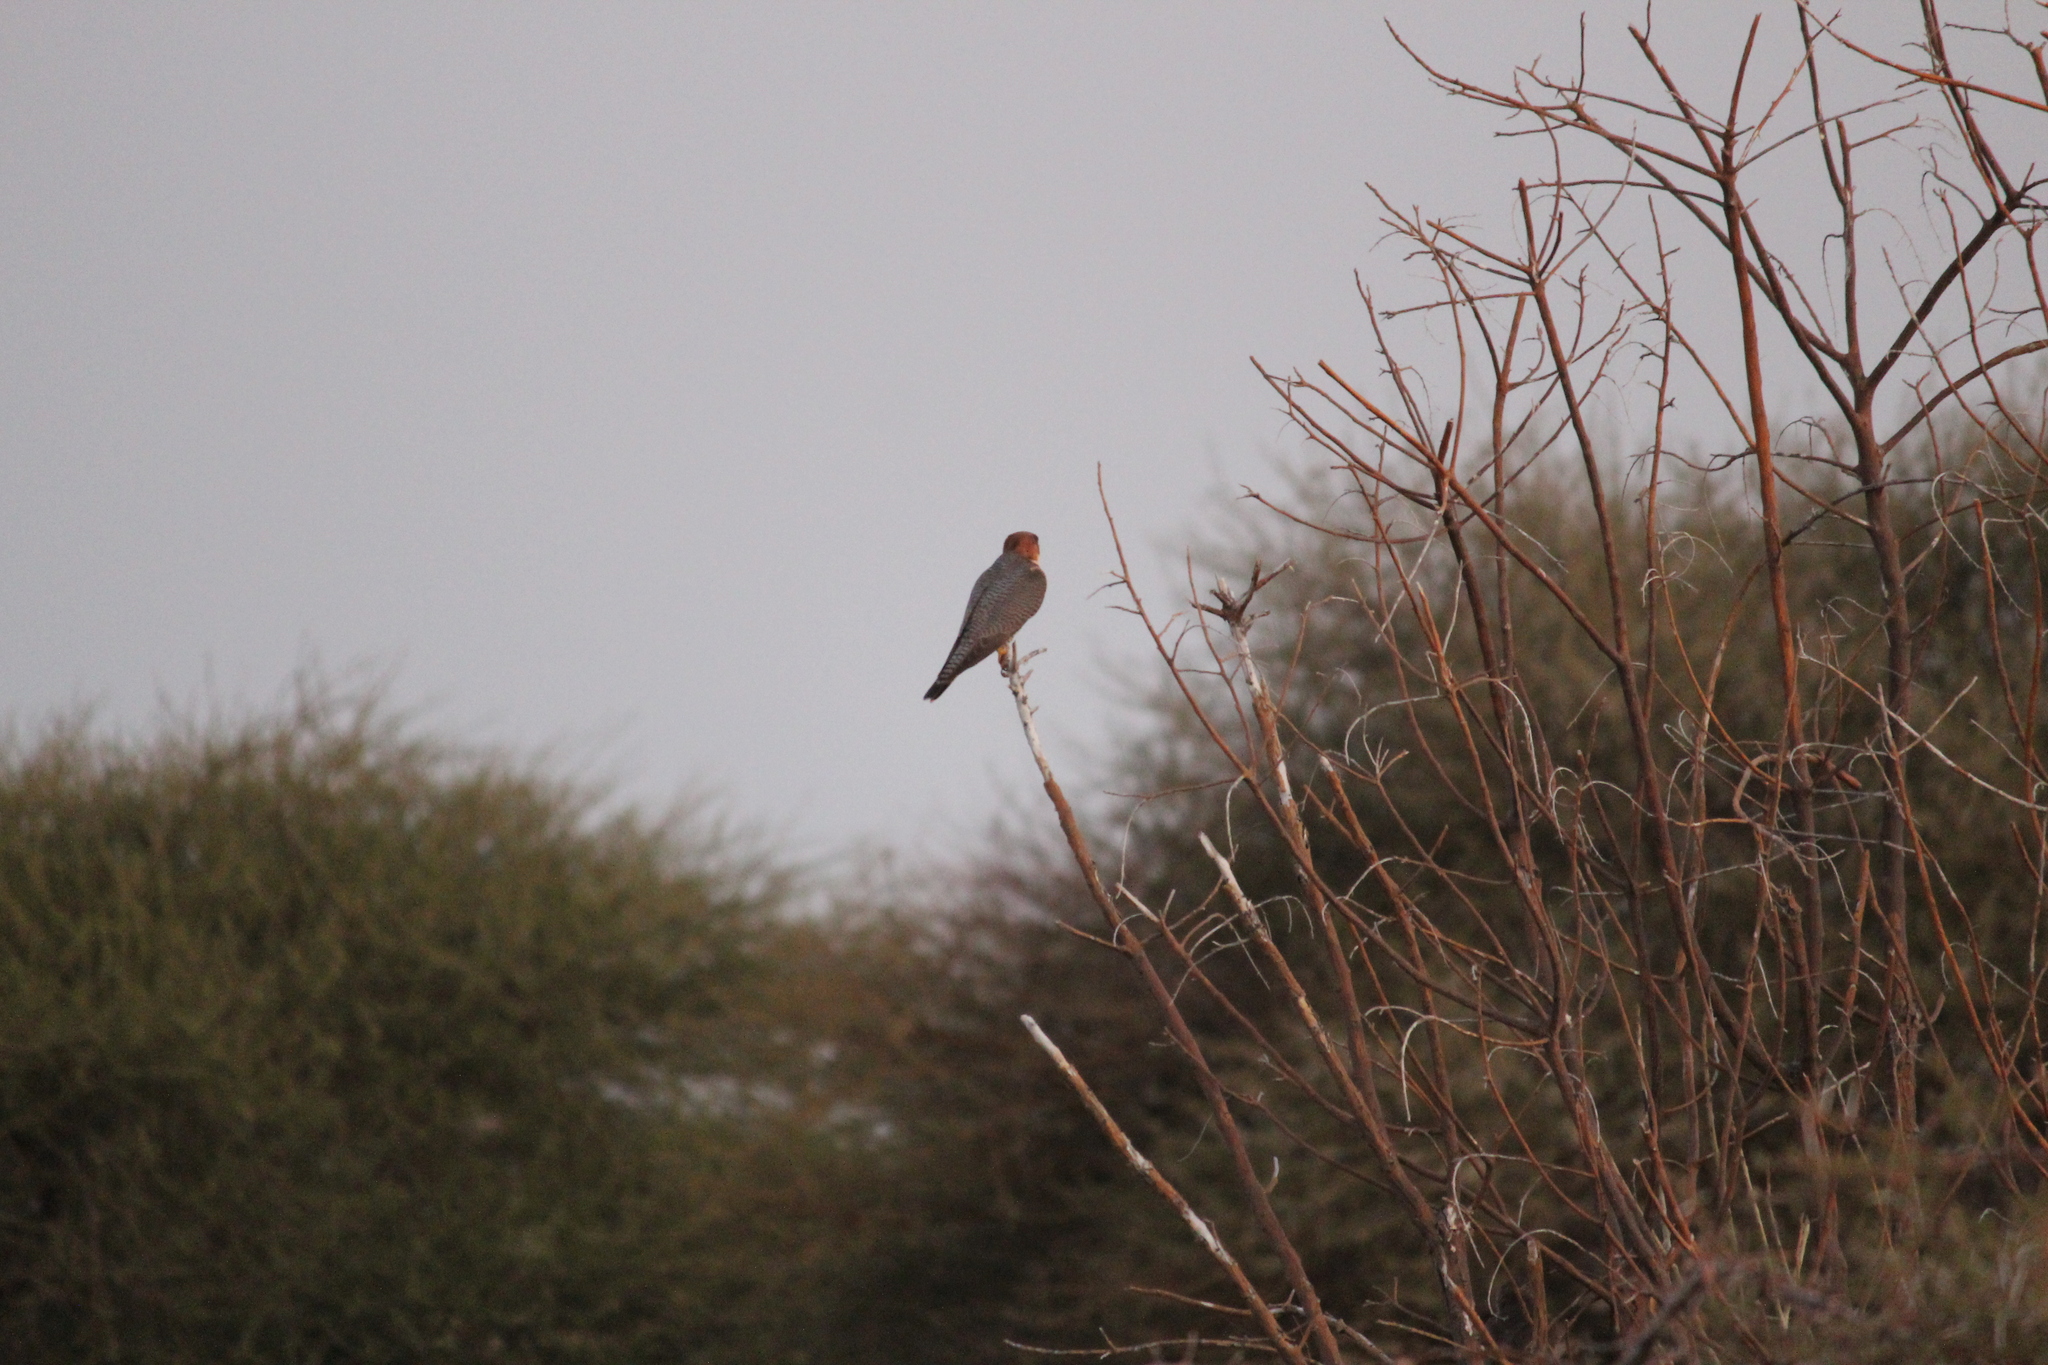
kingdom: Animalia
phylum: Chordata
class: Aves
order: Falconiformes
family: Falconidae
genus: Falco
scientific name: Falco chicquera
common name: Red-necked falcon
